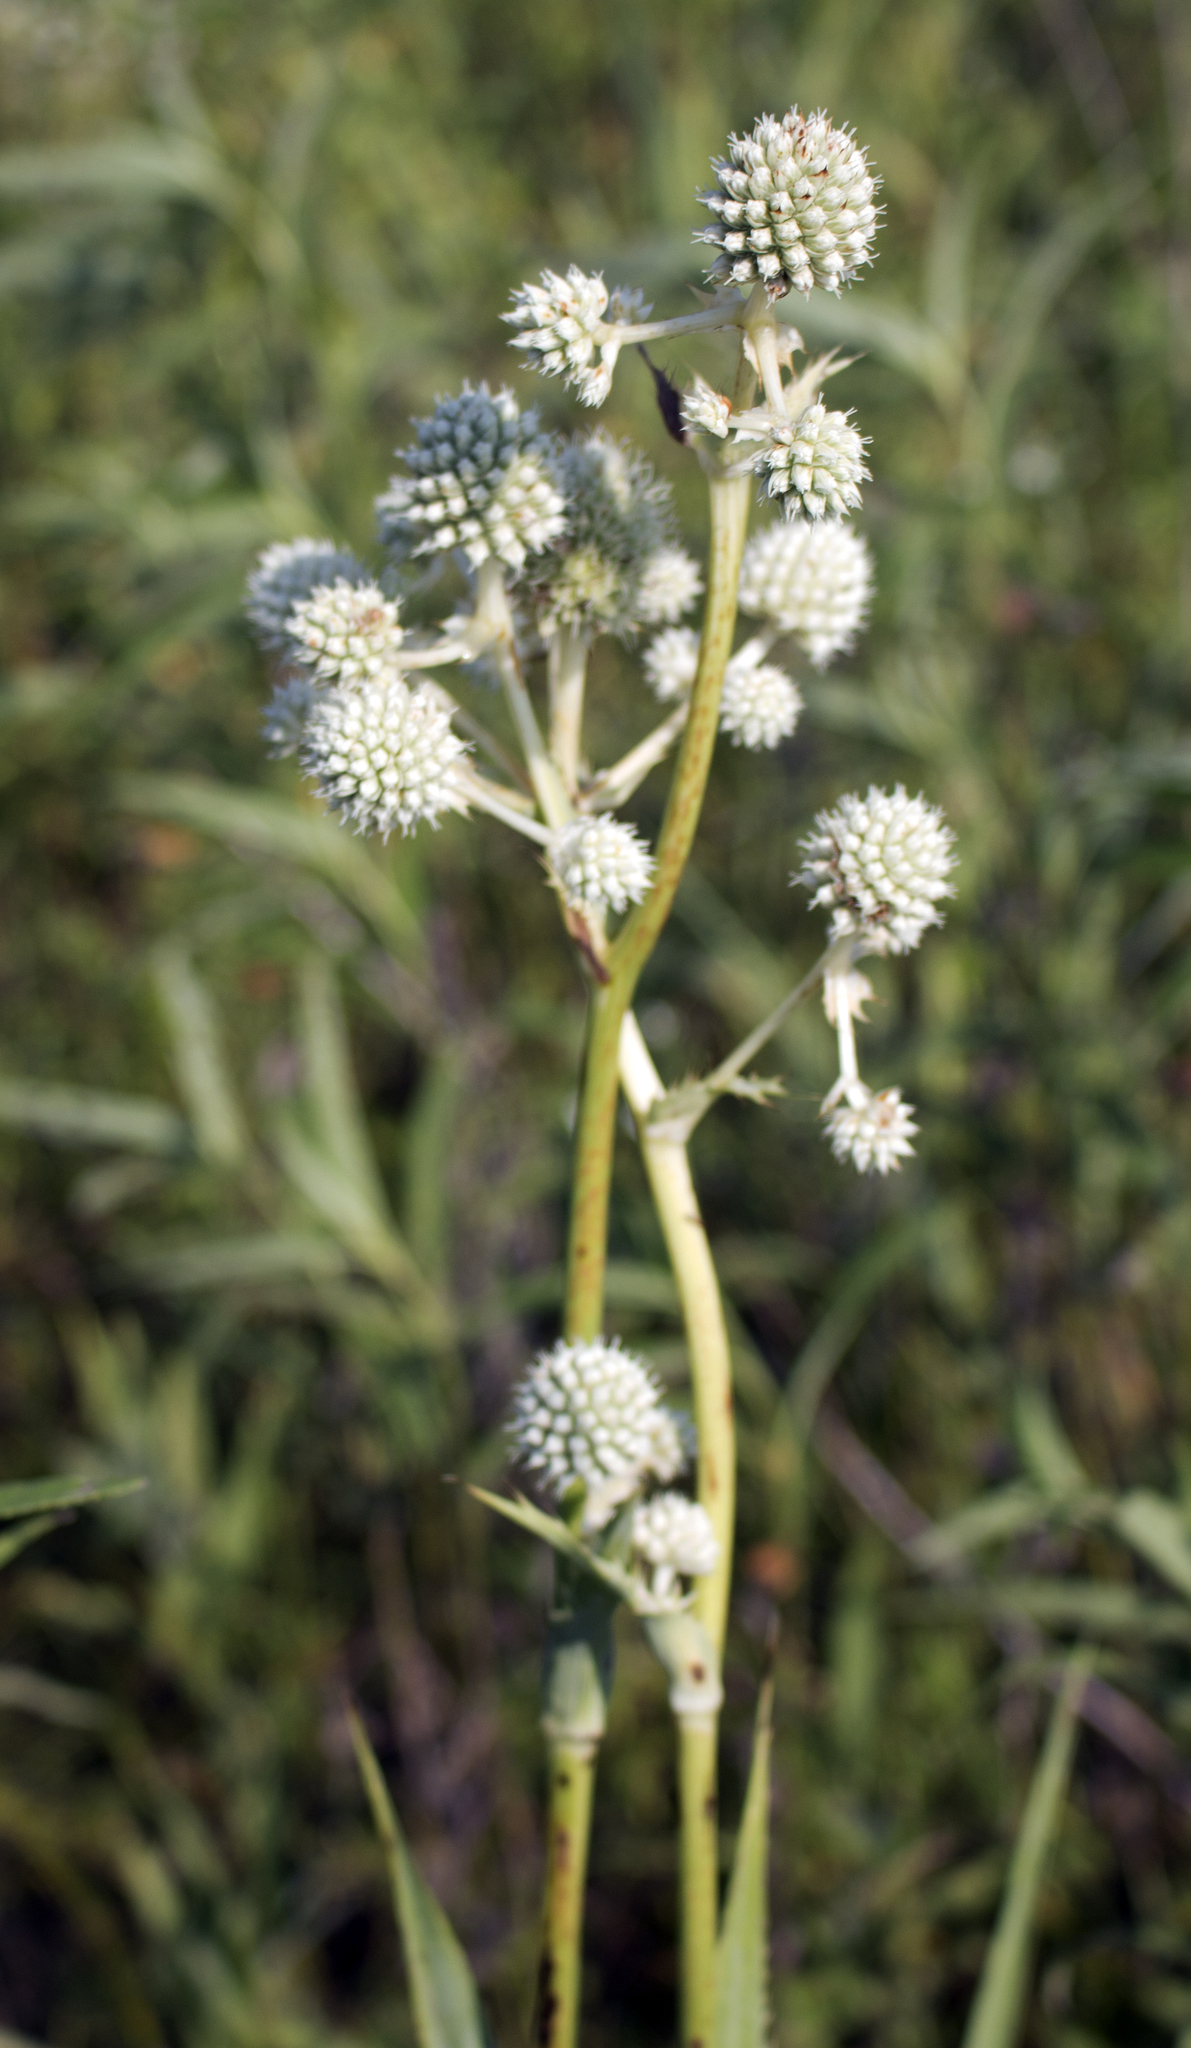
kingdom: Plantae
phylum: Tracheophyta
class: Magnoliopsida
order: Apiales
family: Apiaceae
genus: Eryngium
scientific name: Eryngium yuccifolium
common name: Button eryngo
